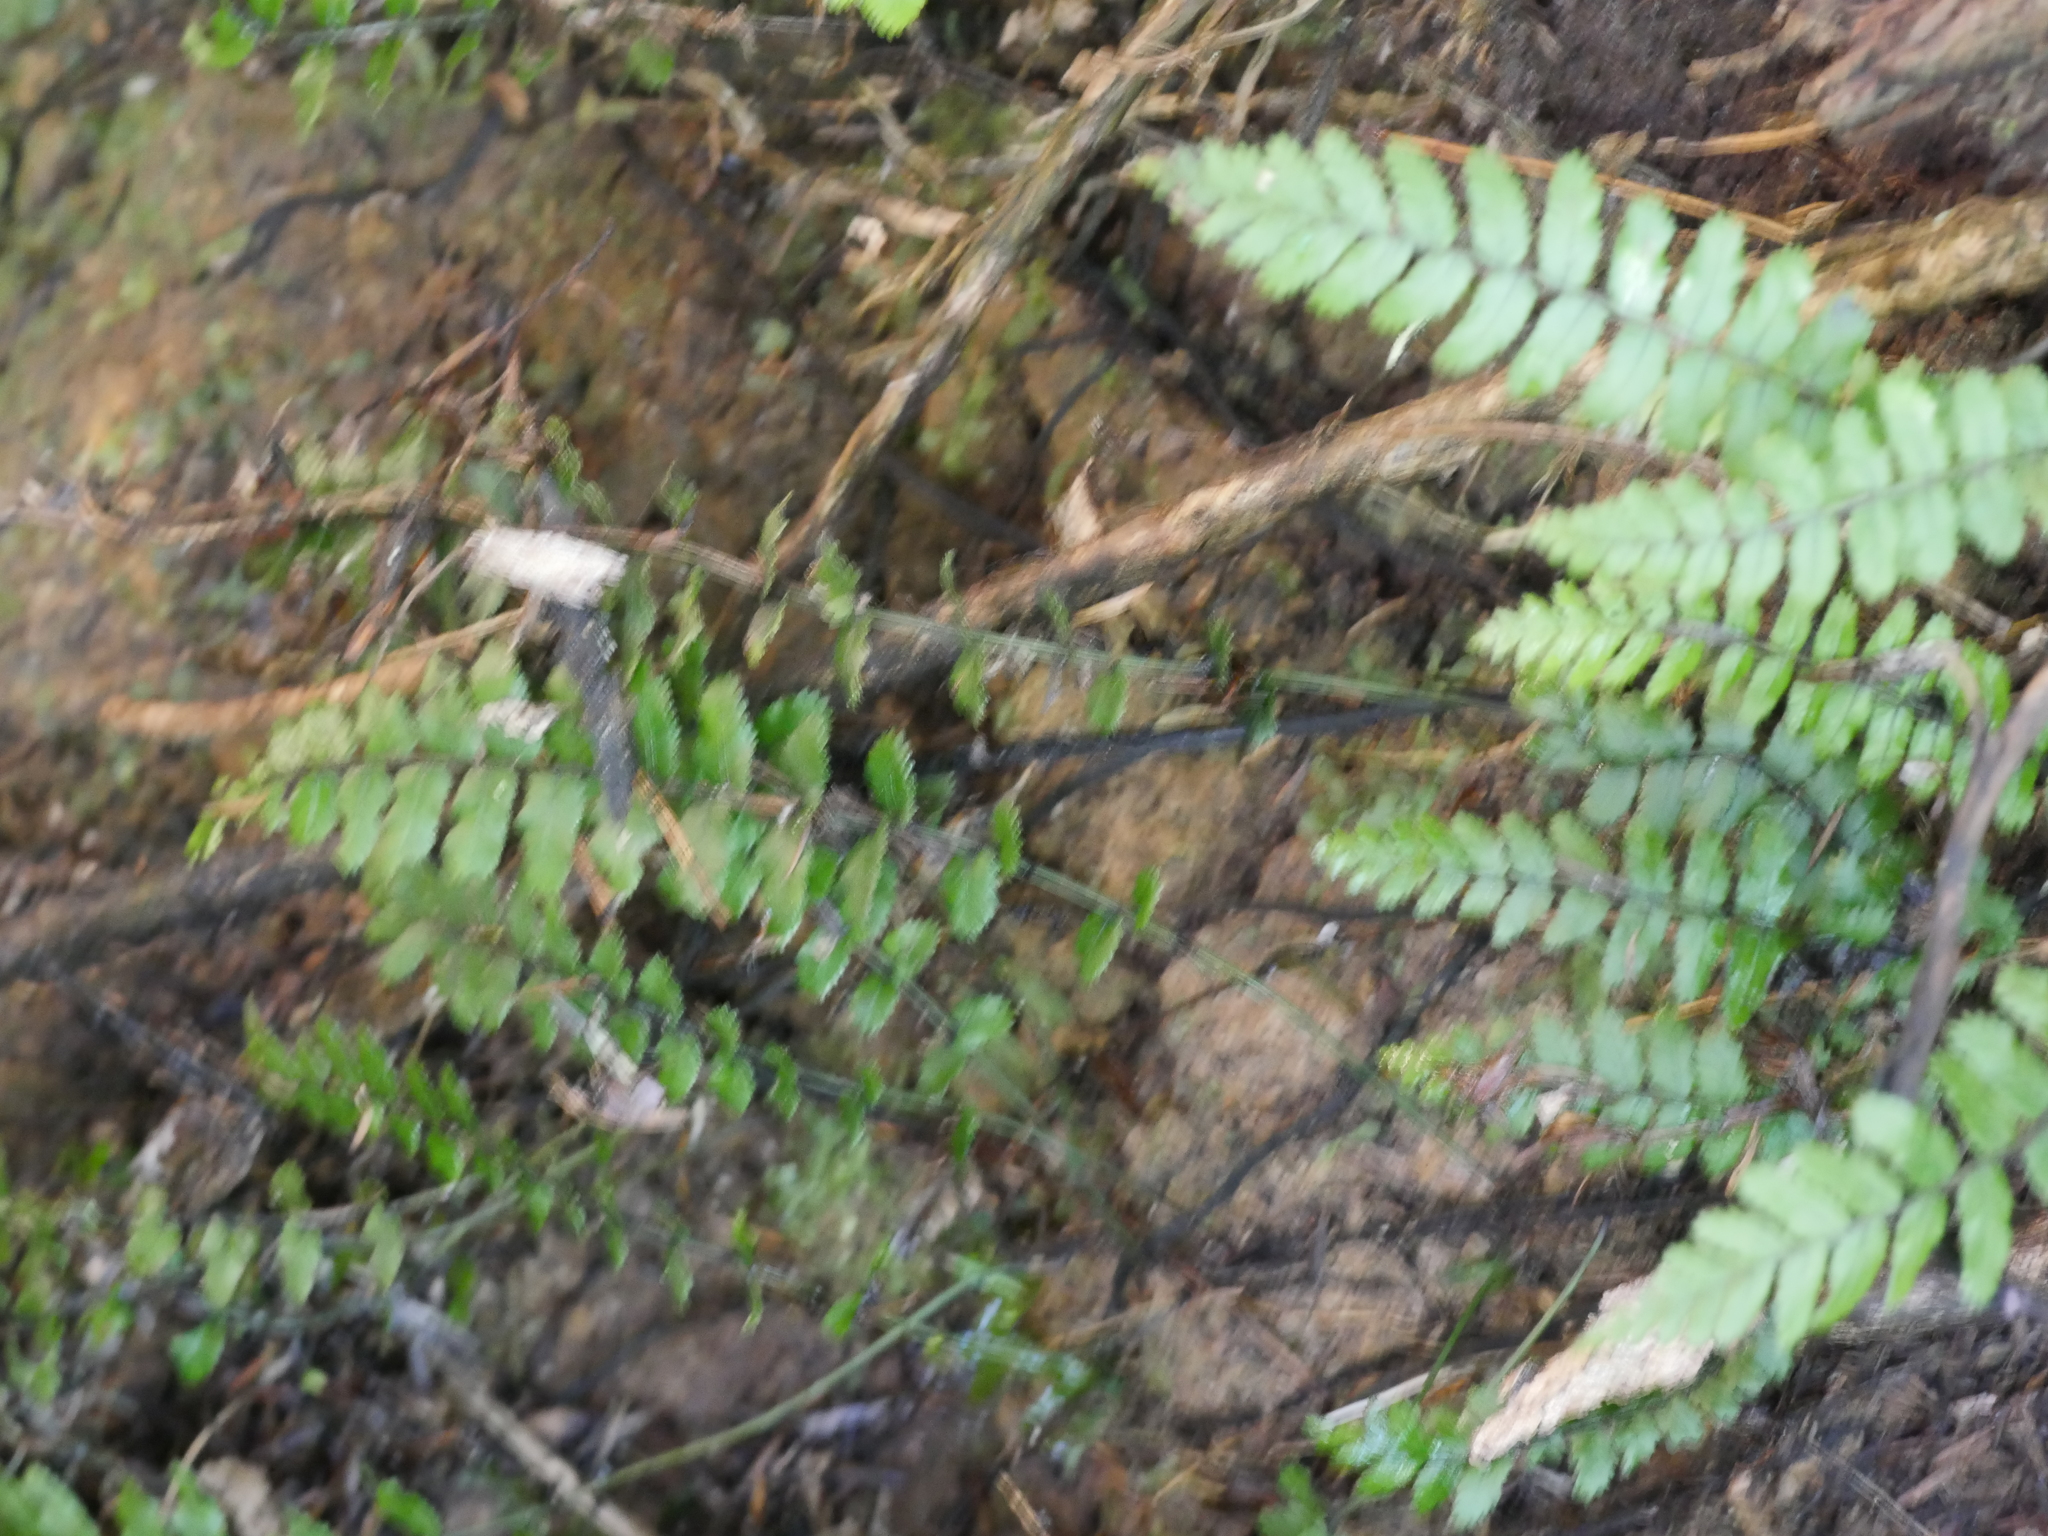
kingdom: Plantae
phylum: Tracheophyta
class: Polypodiopsida
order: Polypodiales
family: Blechnaceae
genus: Icarus
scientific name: Icarus filiformis
